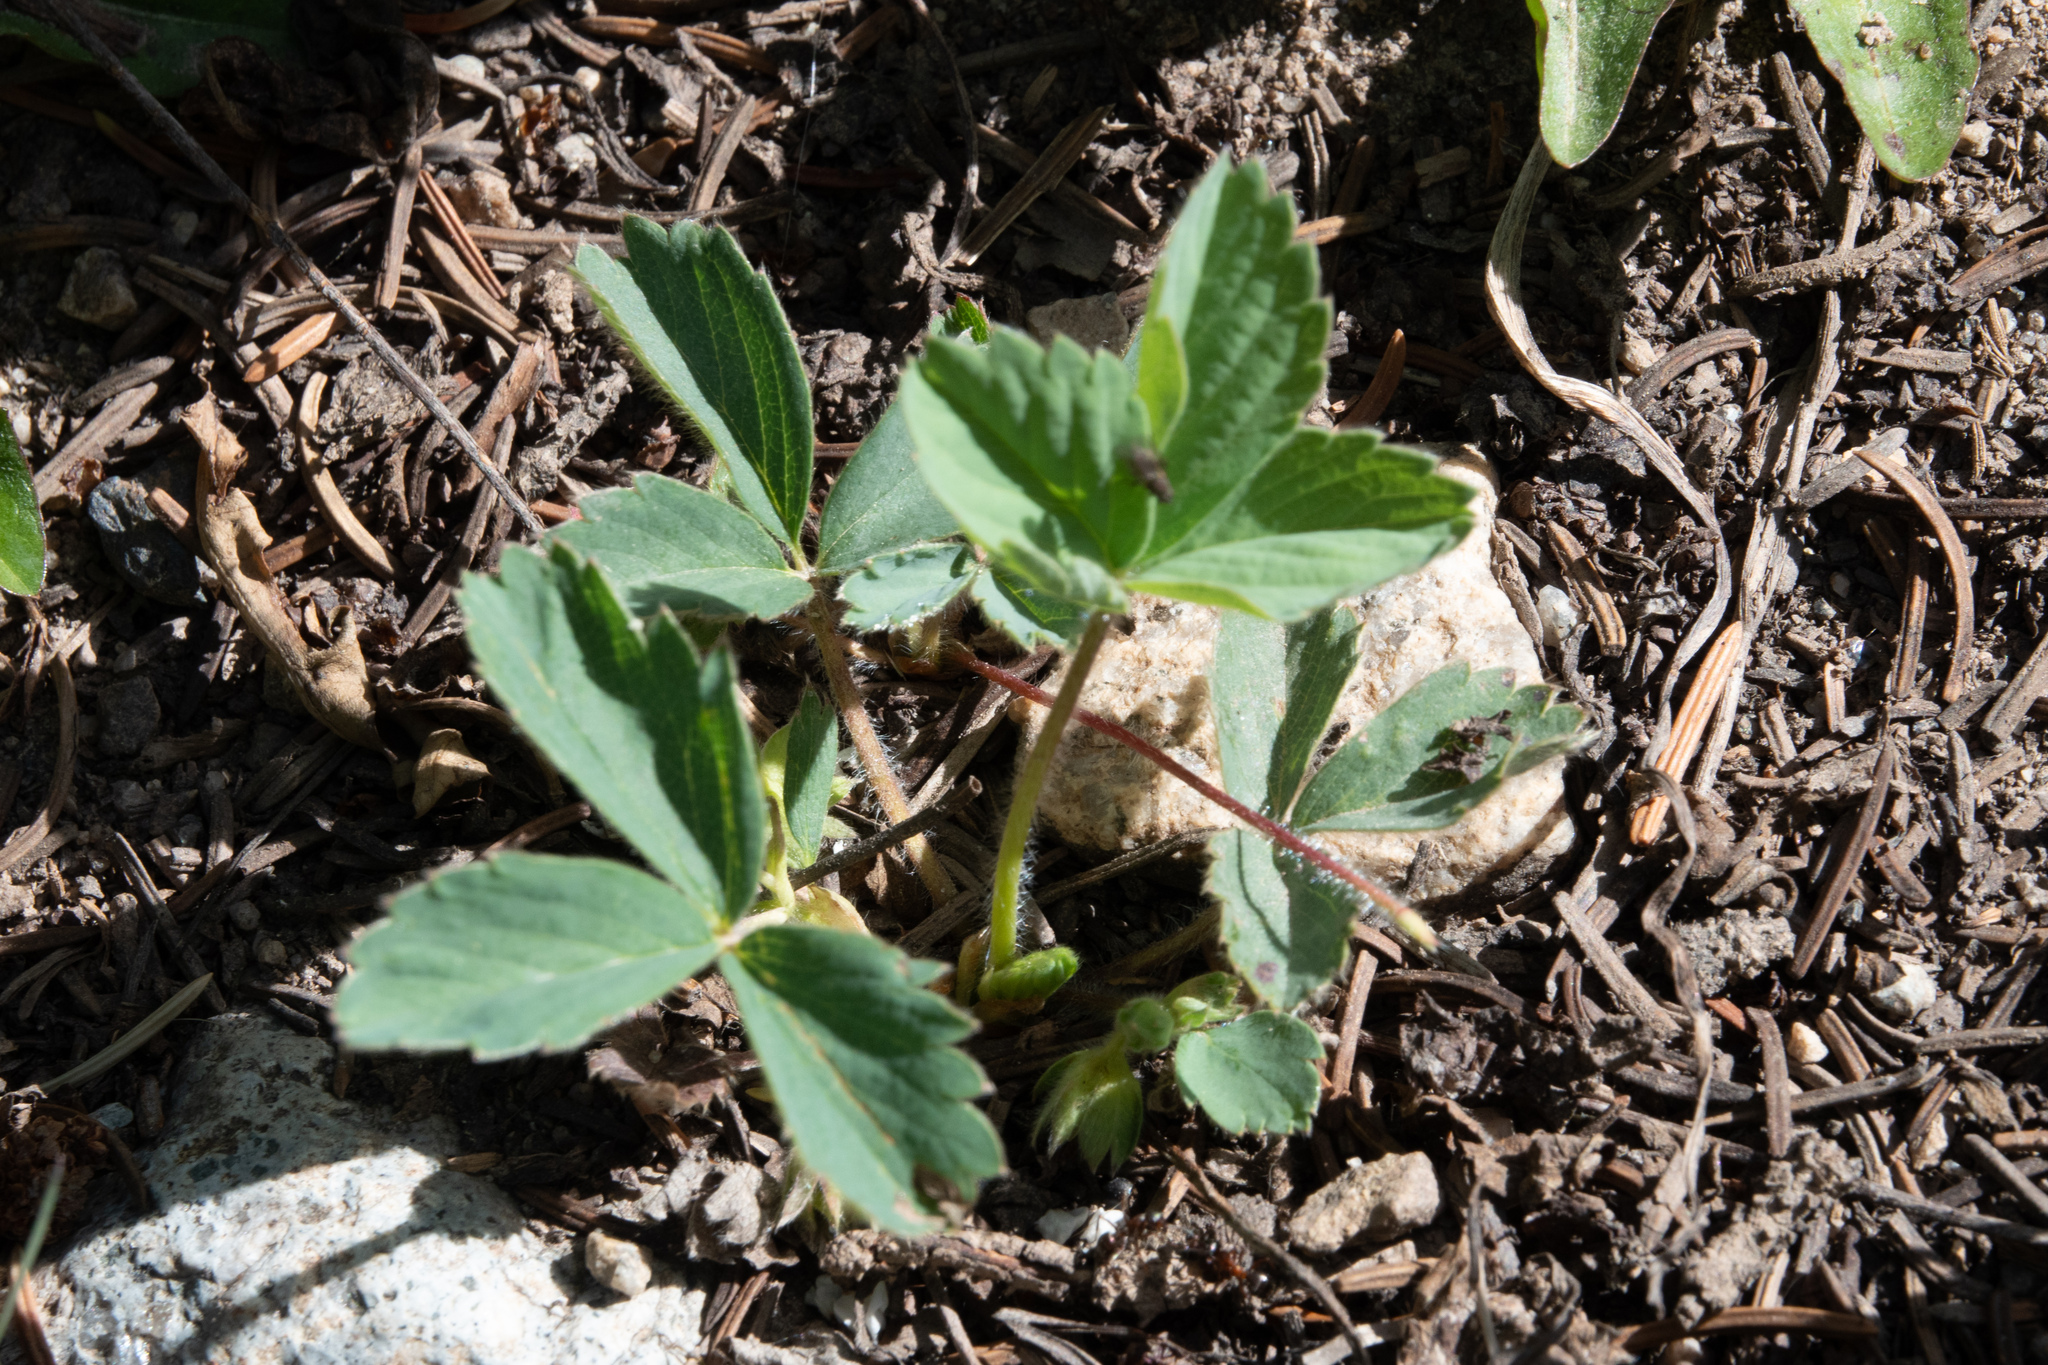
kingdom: Plantae
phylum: Tracheophyta
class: Magnoliopsida
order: Rosales
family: Rosaceae
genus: Fragaria
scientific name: Fragaria virginiana
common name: Thickleaved wild strawberry
